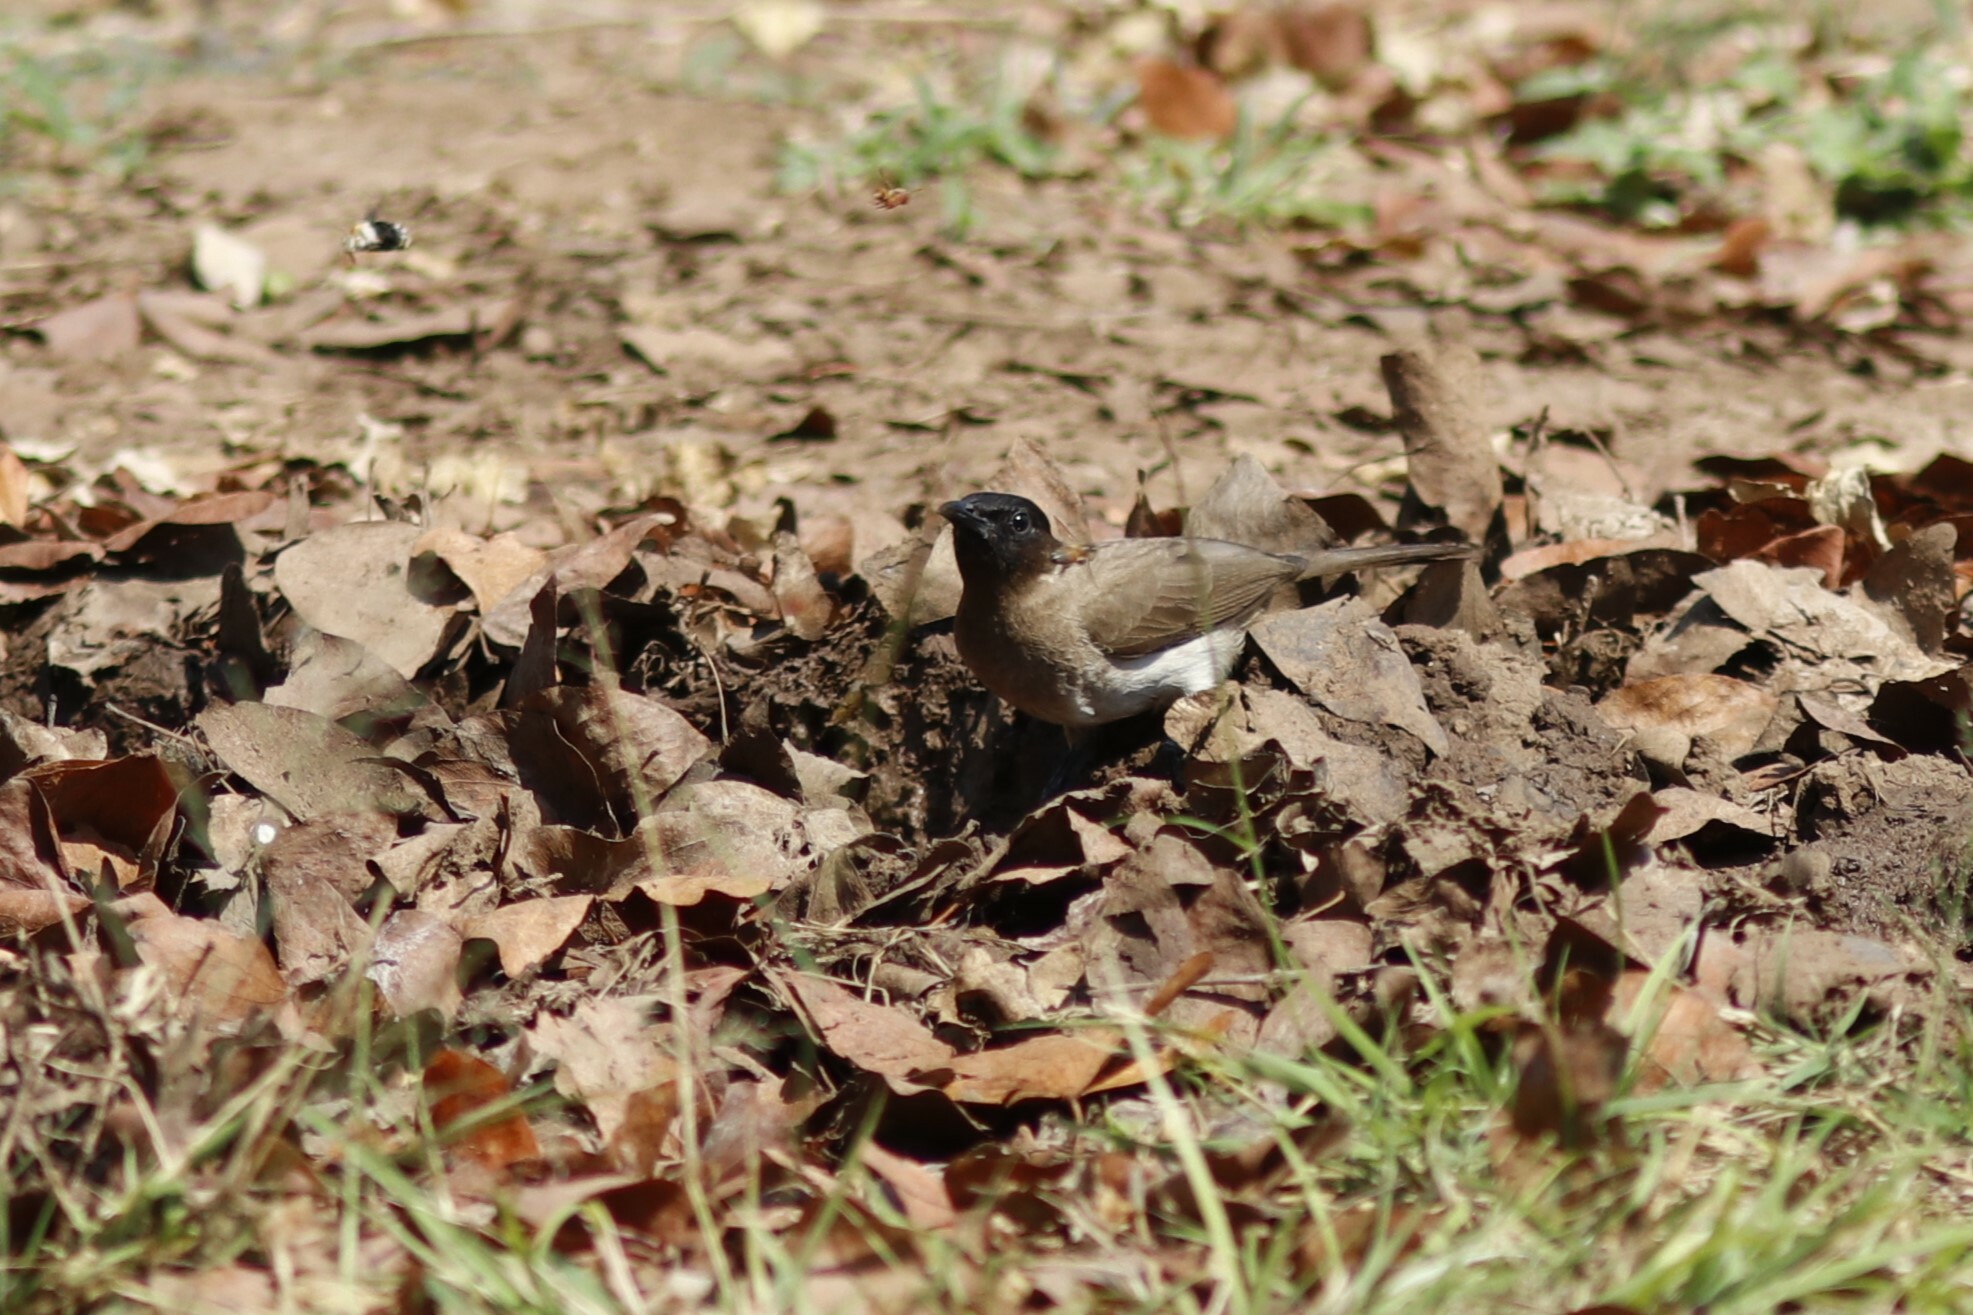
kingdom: Animalia
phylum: Chordata
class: Aves
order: Passeriformes
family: Pycnonotidae
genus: Pycnonotus
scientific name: Pycnonotus barbatus
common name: Common bulbul
